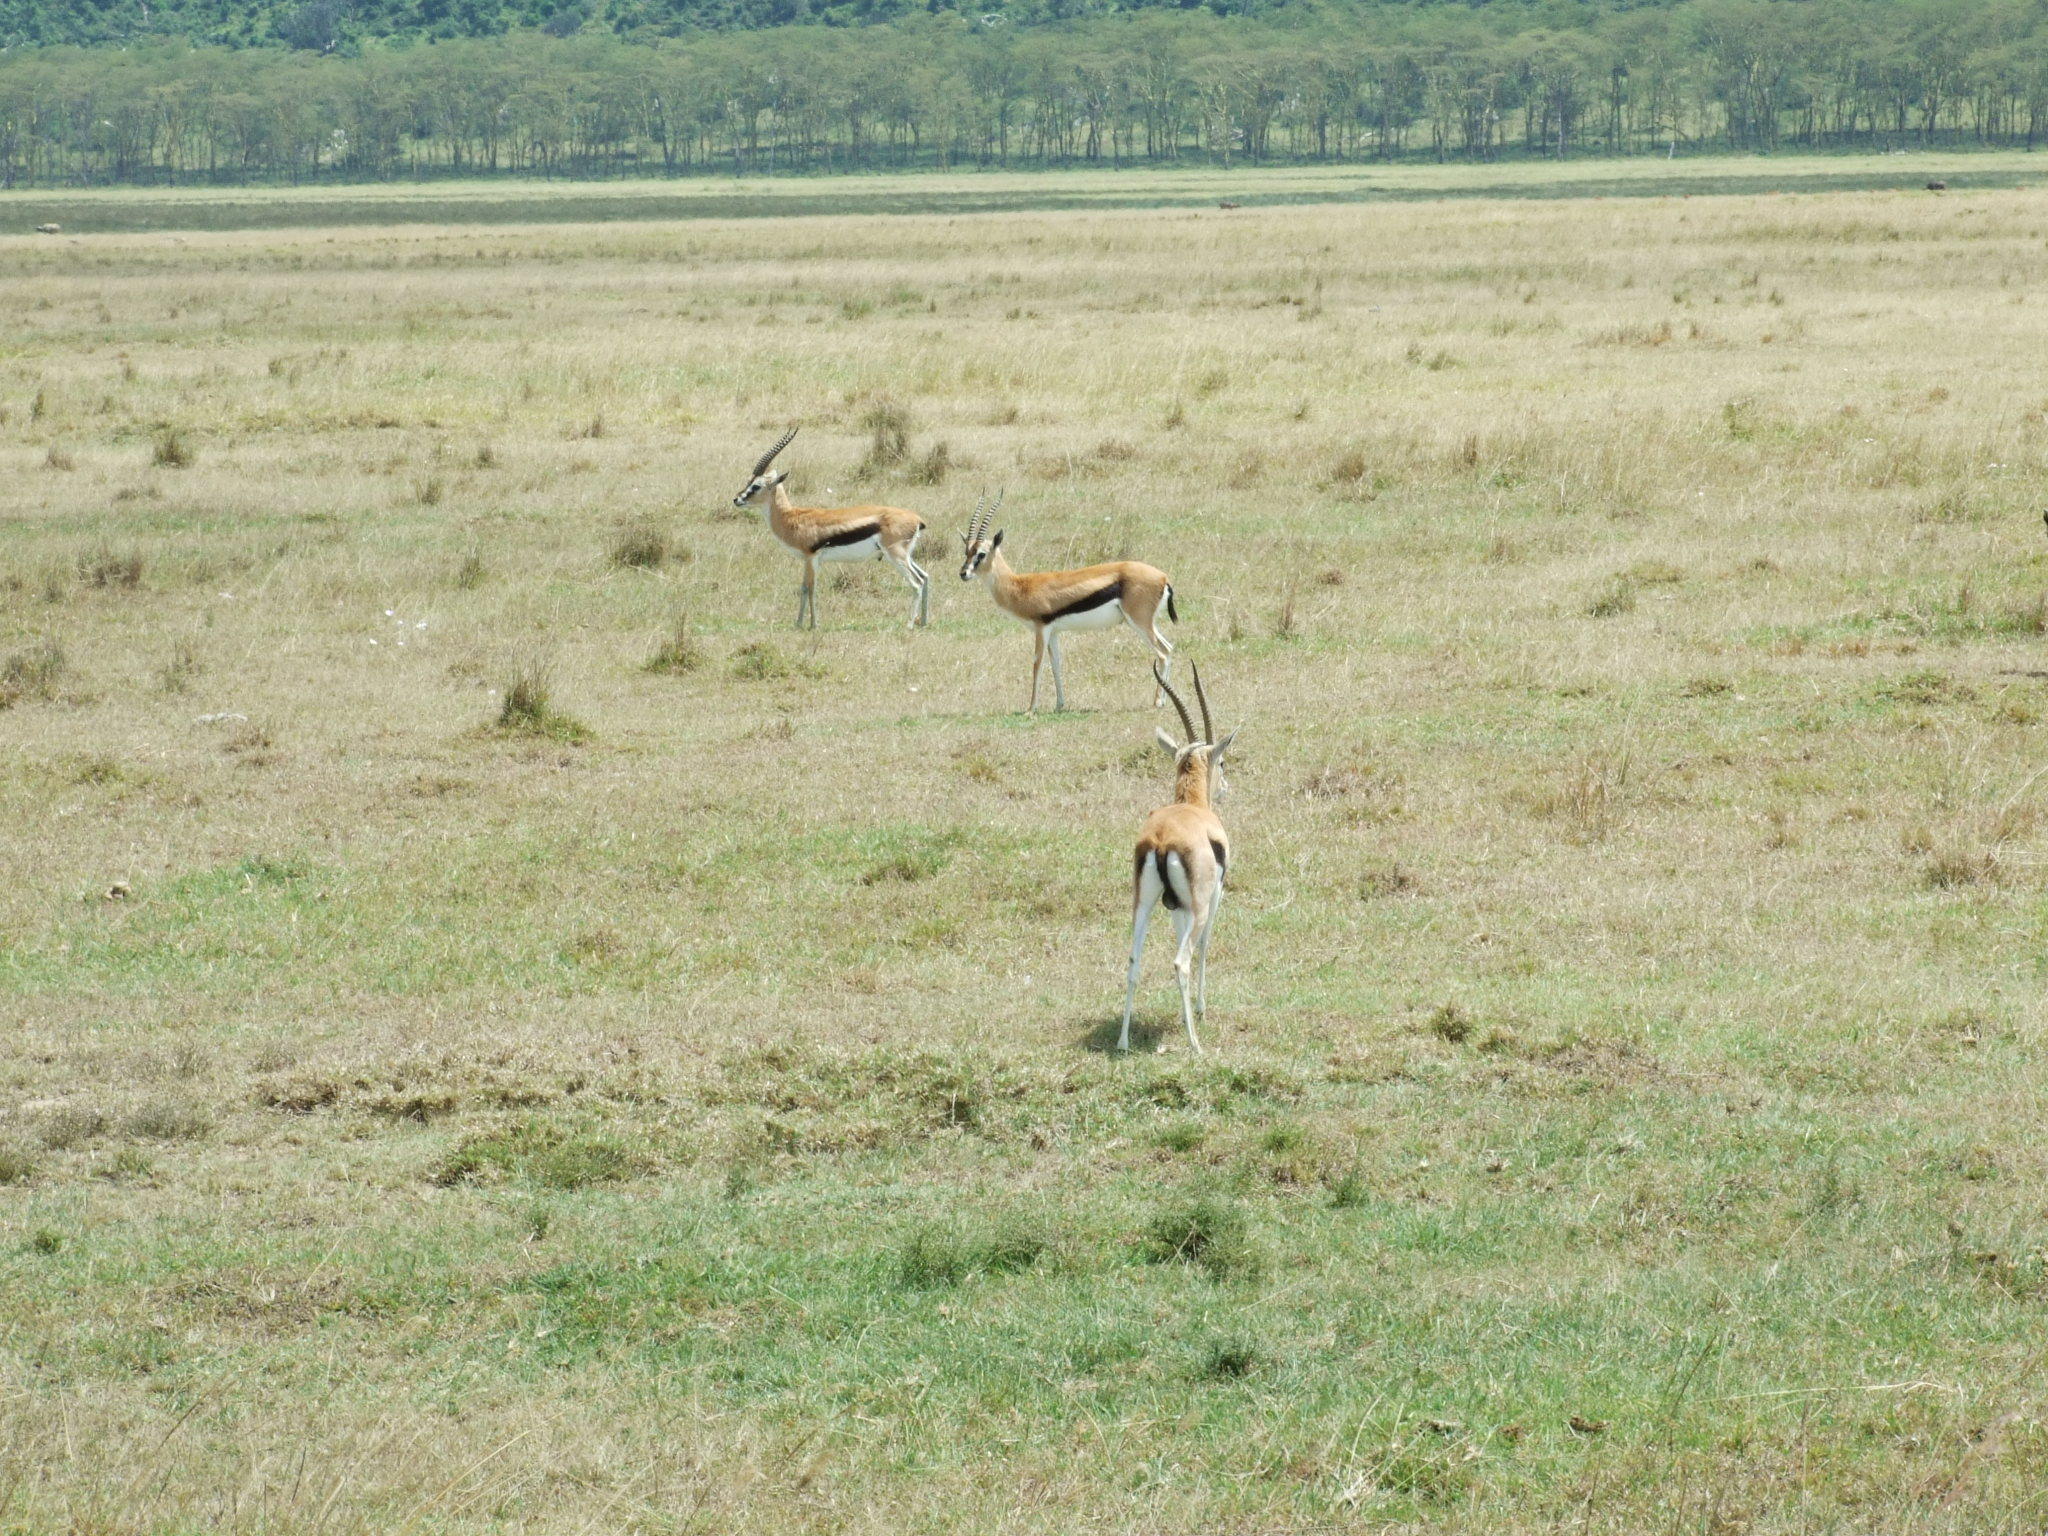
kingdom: Animalia
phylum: Chordata
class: Mammalia
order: Artiodactyla
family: Bovidae
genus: Eudorcas
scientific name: Eudorcas thomsonii
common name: Thomson's gazelle
